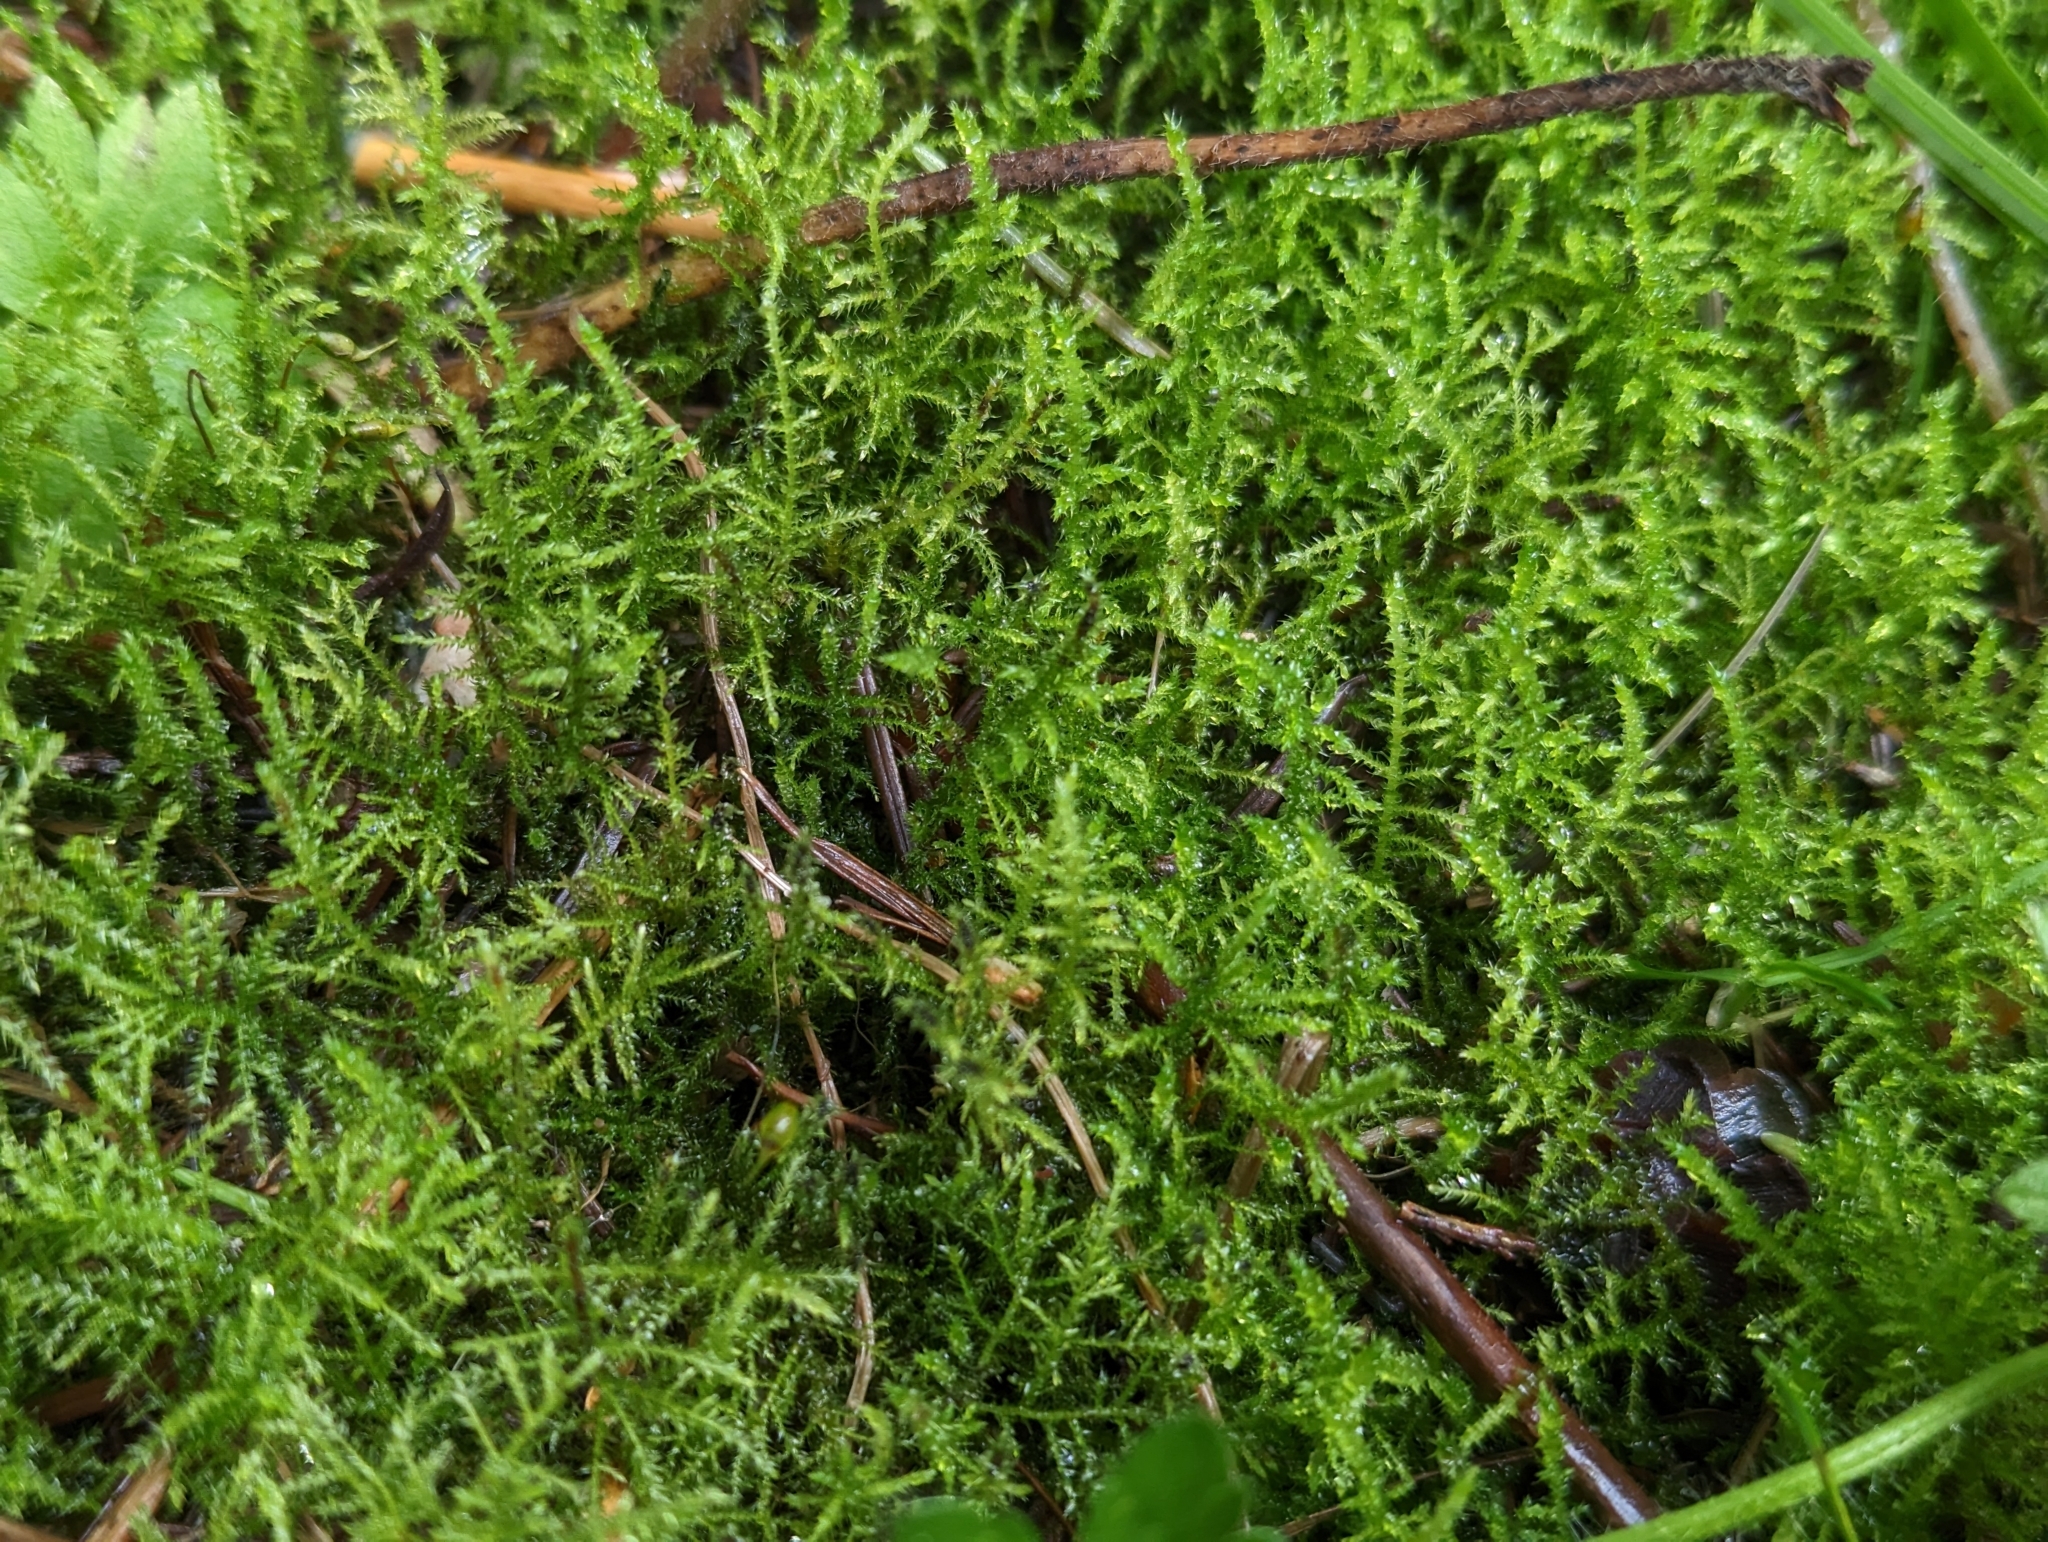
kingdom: Plantae
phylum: Bryophyta
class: Bryopsida
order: Hypnales
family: Brachytheciaceae
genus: Kindbergia
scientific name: Kindbergia praelonga
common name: Slender beaked moss
